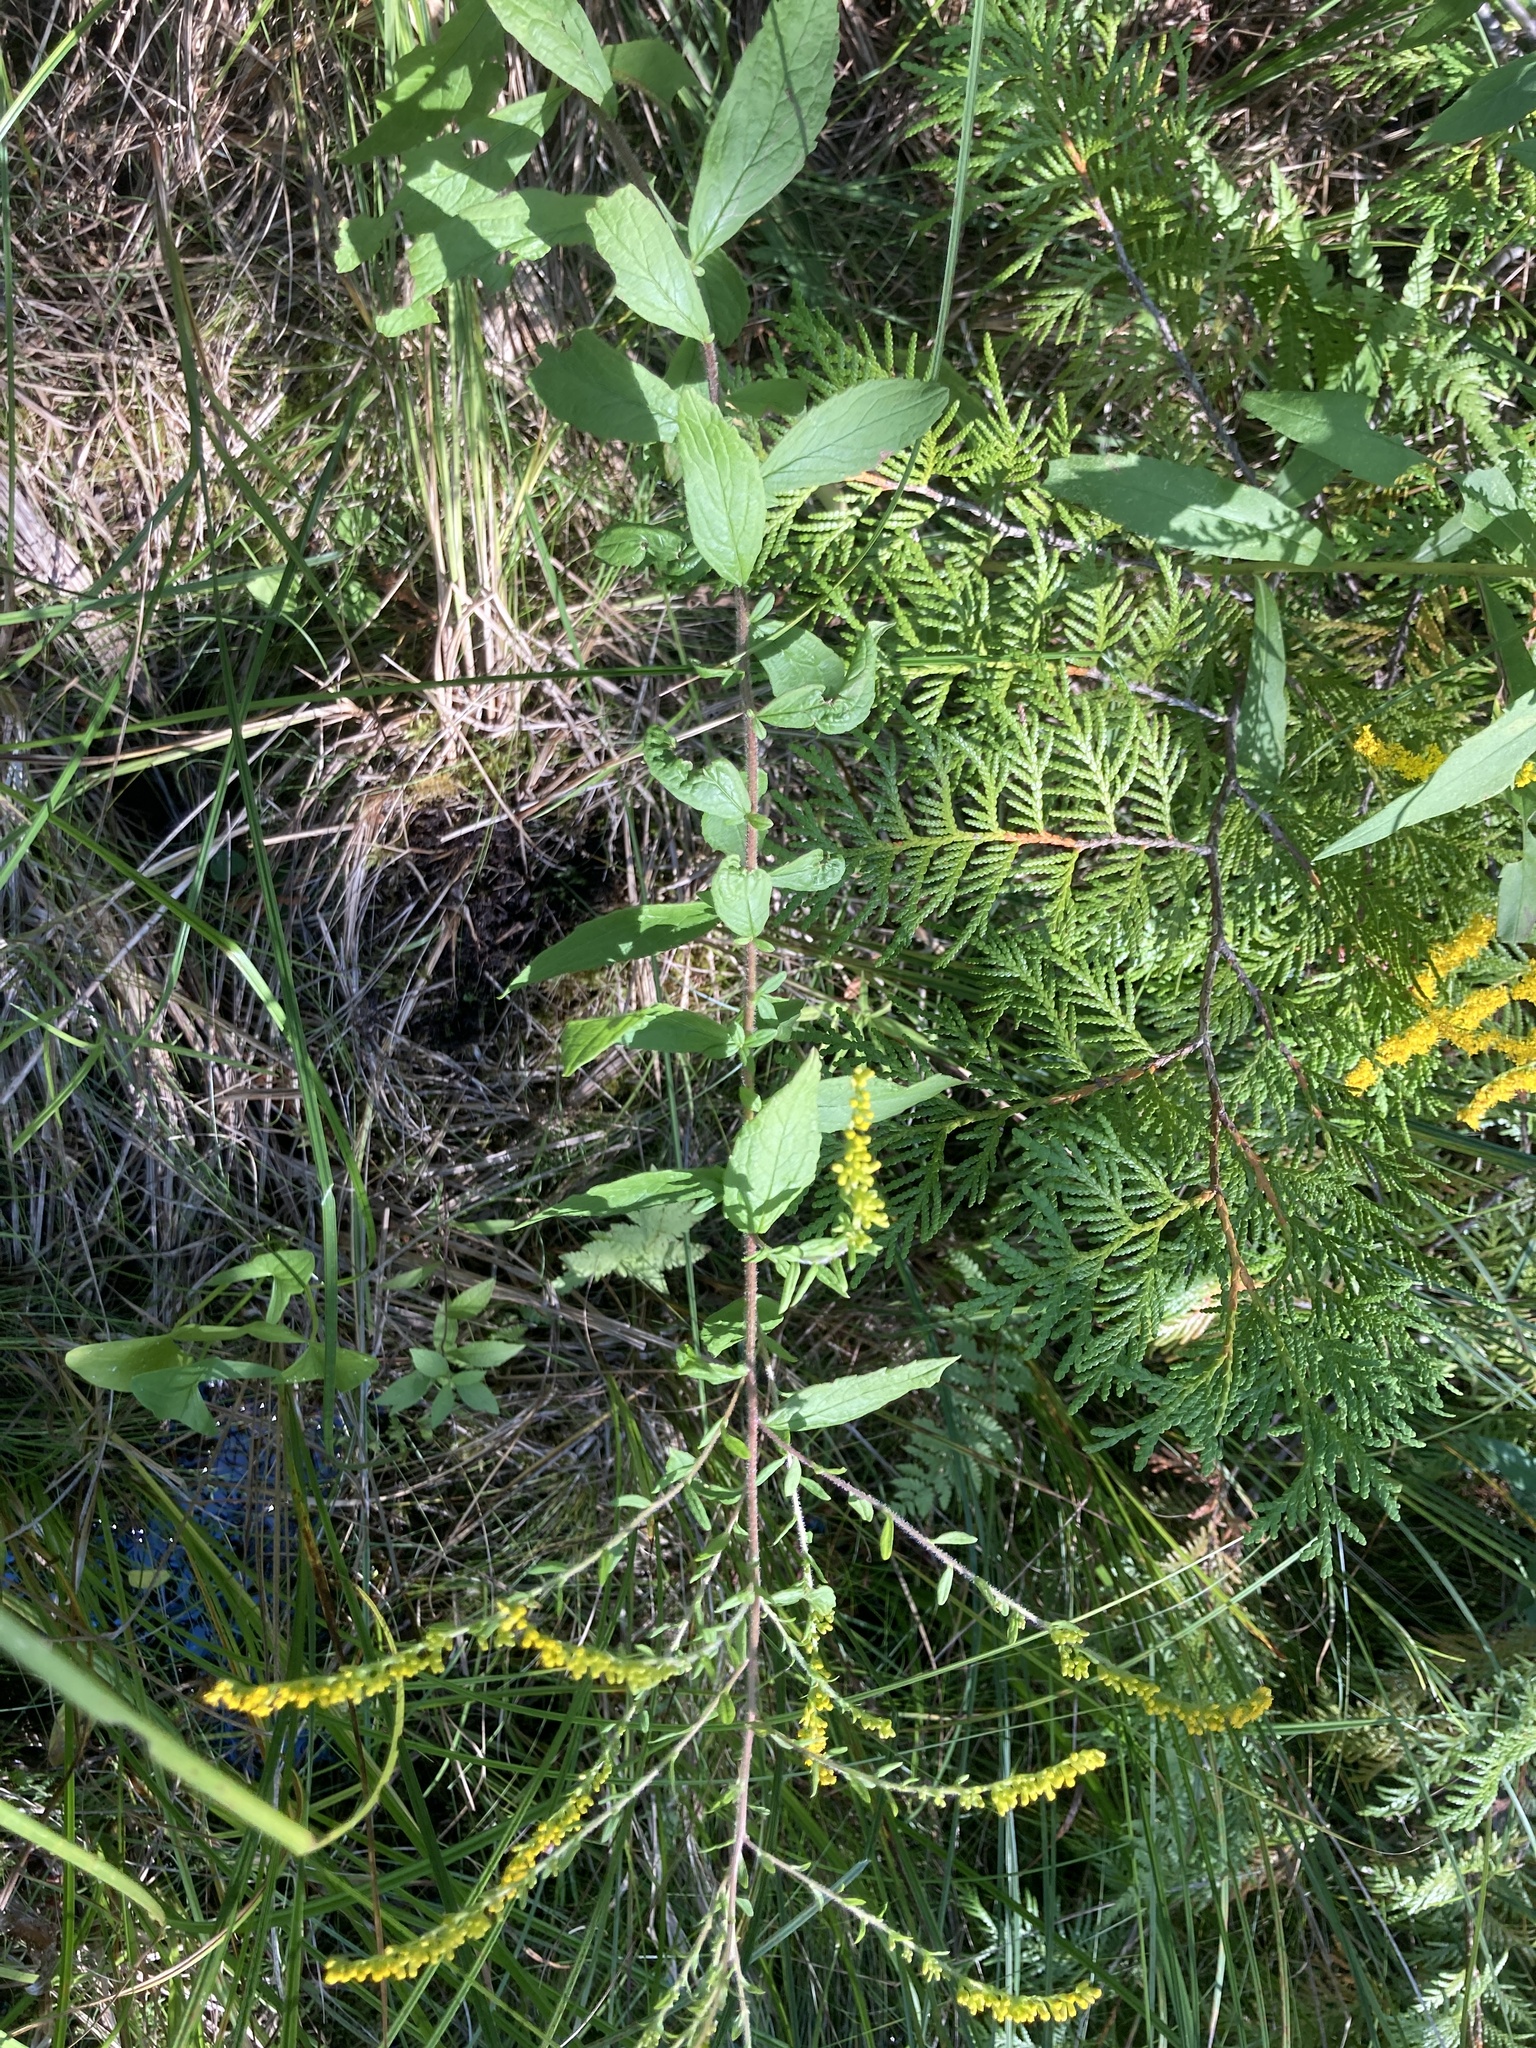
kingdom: Plantae
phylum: Tracheophyta
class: Magnoliopsida
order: Asterales
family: Asteraceae
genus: Solidago
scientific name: Solidago rugosa
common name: Rough-stemmed goldenrod
